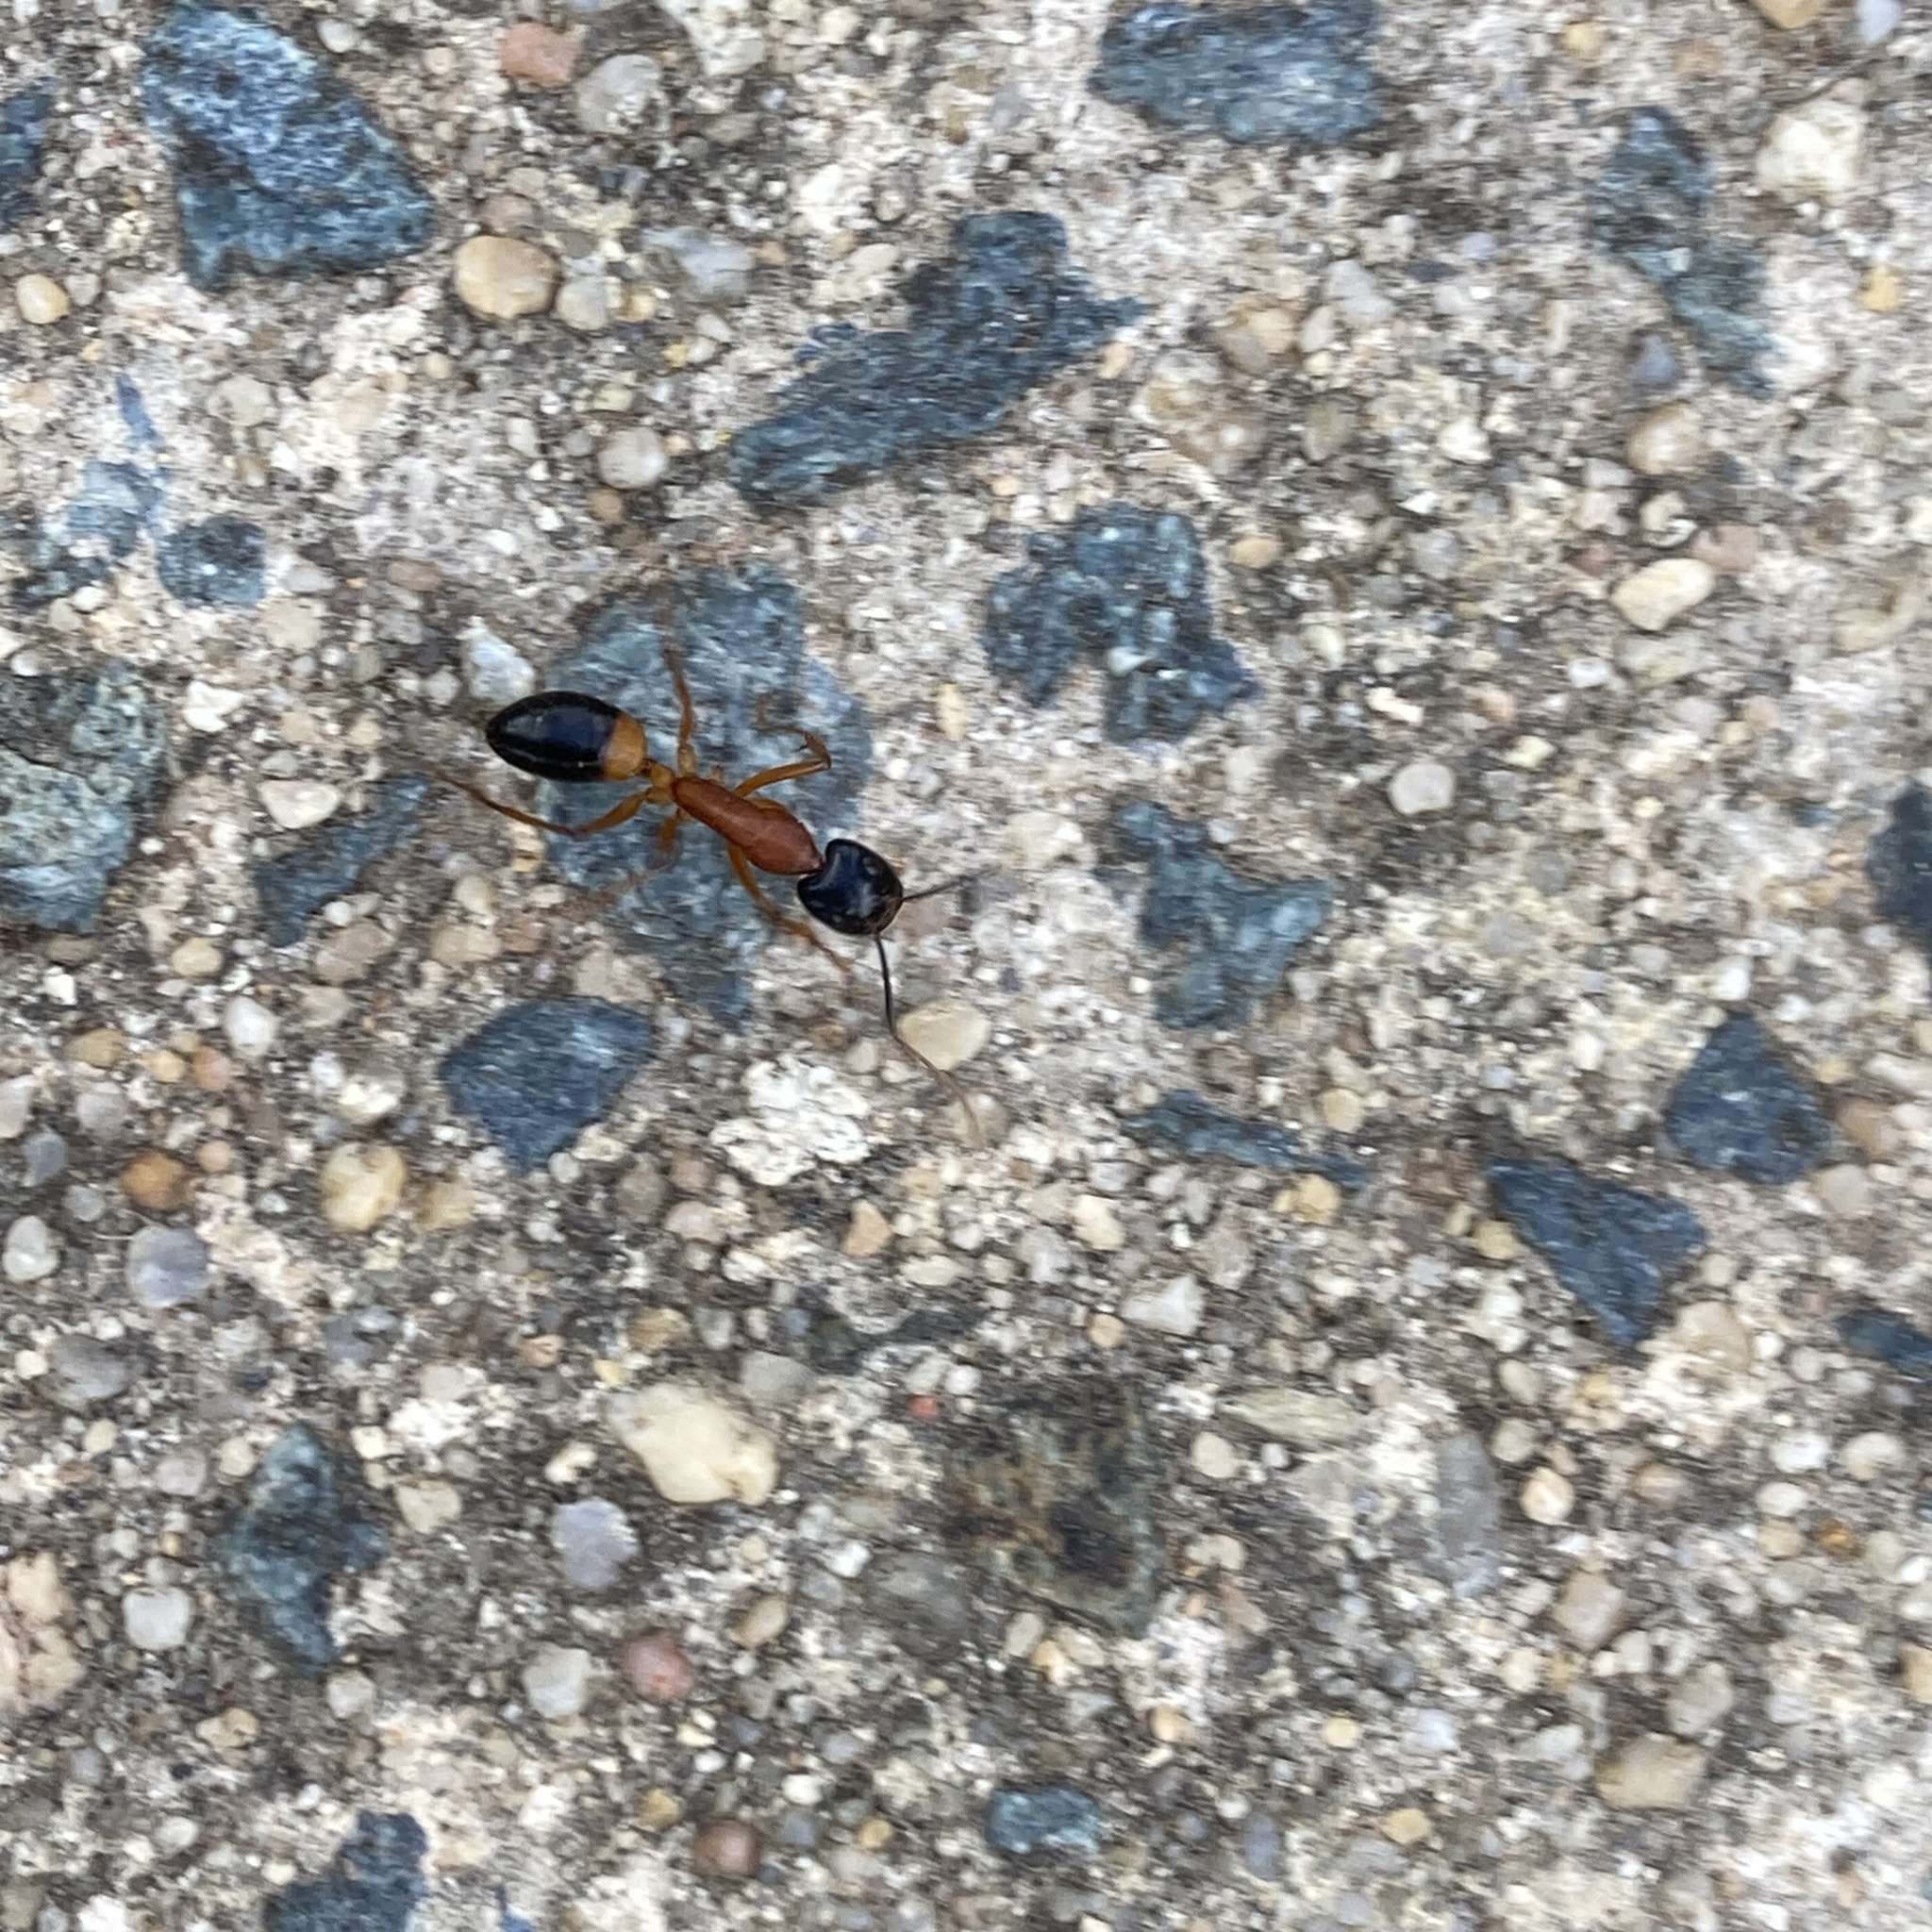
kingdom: Animalia
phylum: Arthropoda
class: Insecta
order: Hymenoptera
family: Formicidae
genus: Camponotus
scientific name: Camponotus consobrinus
